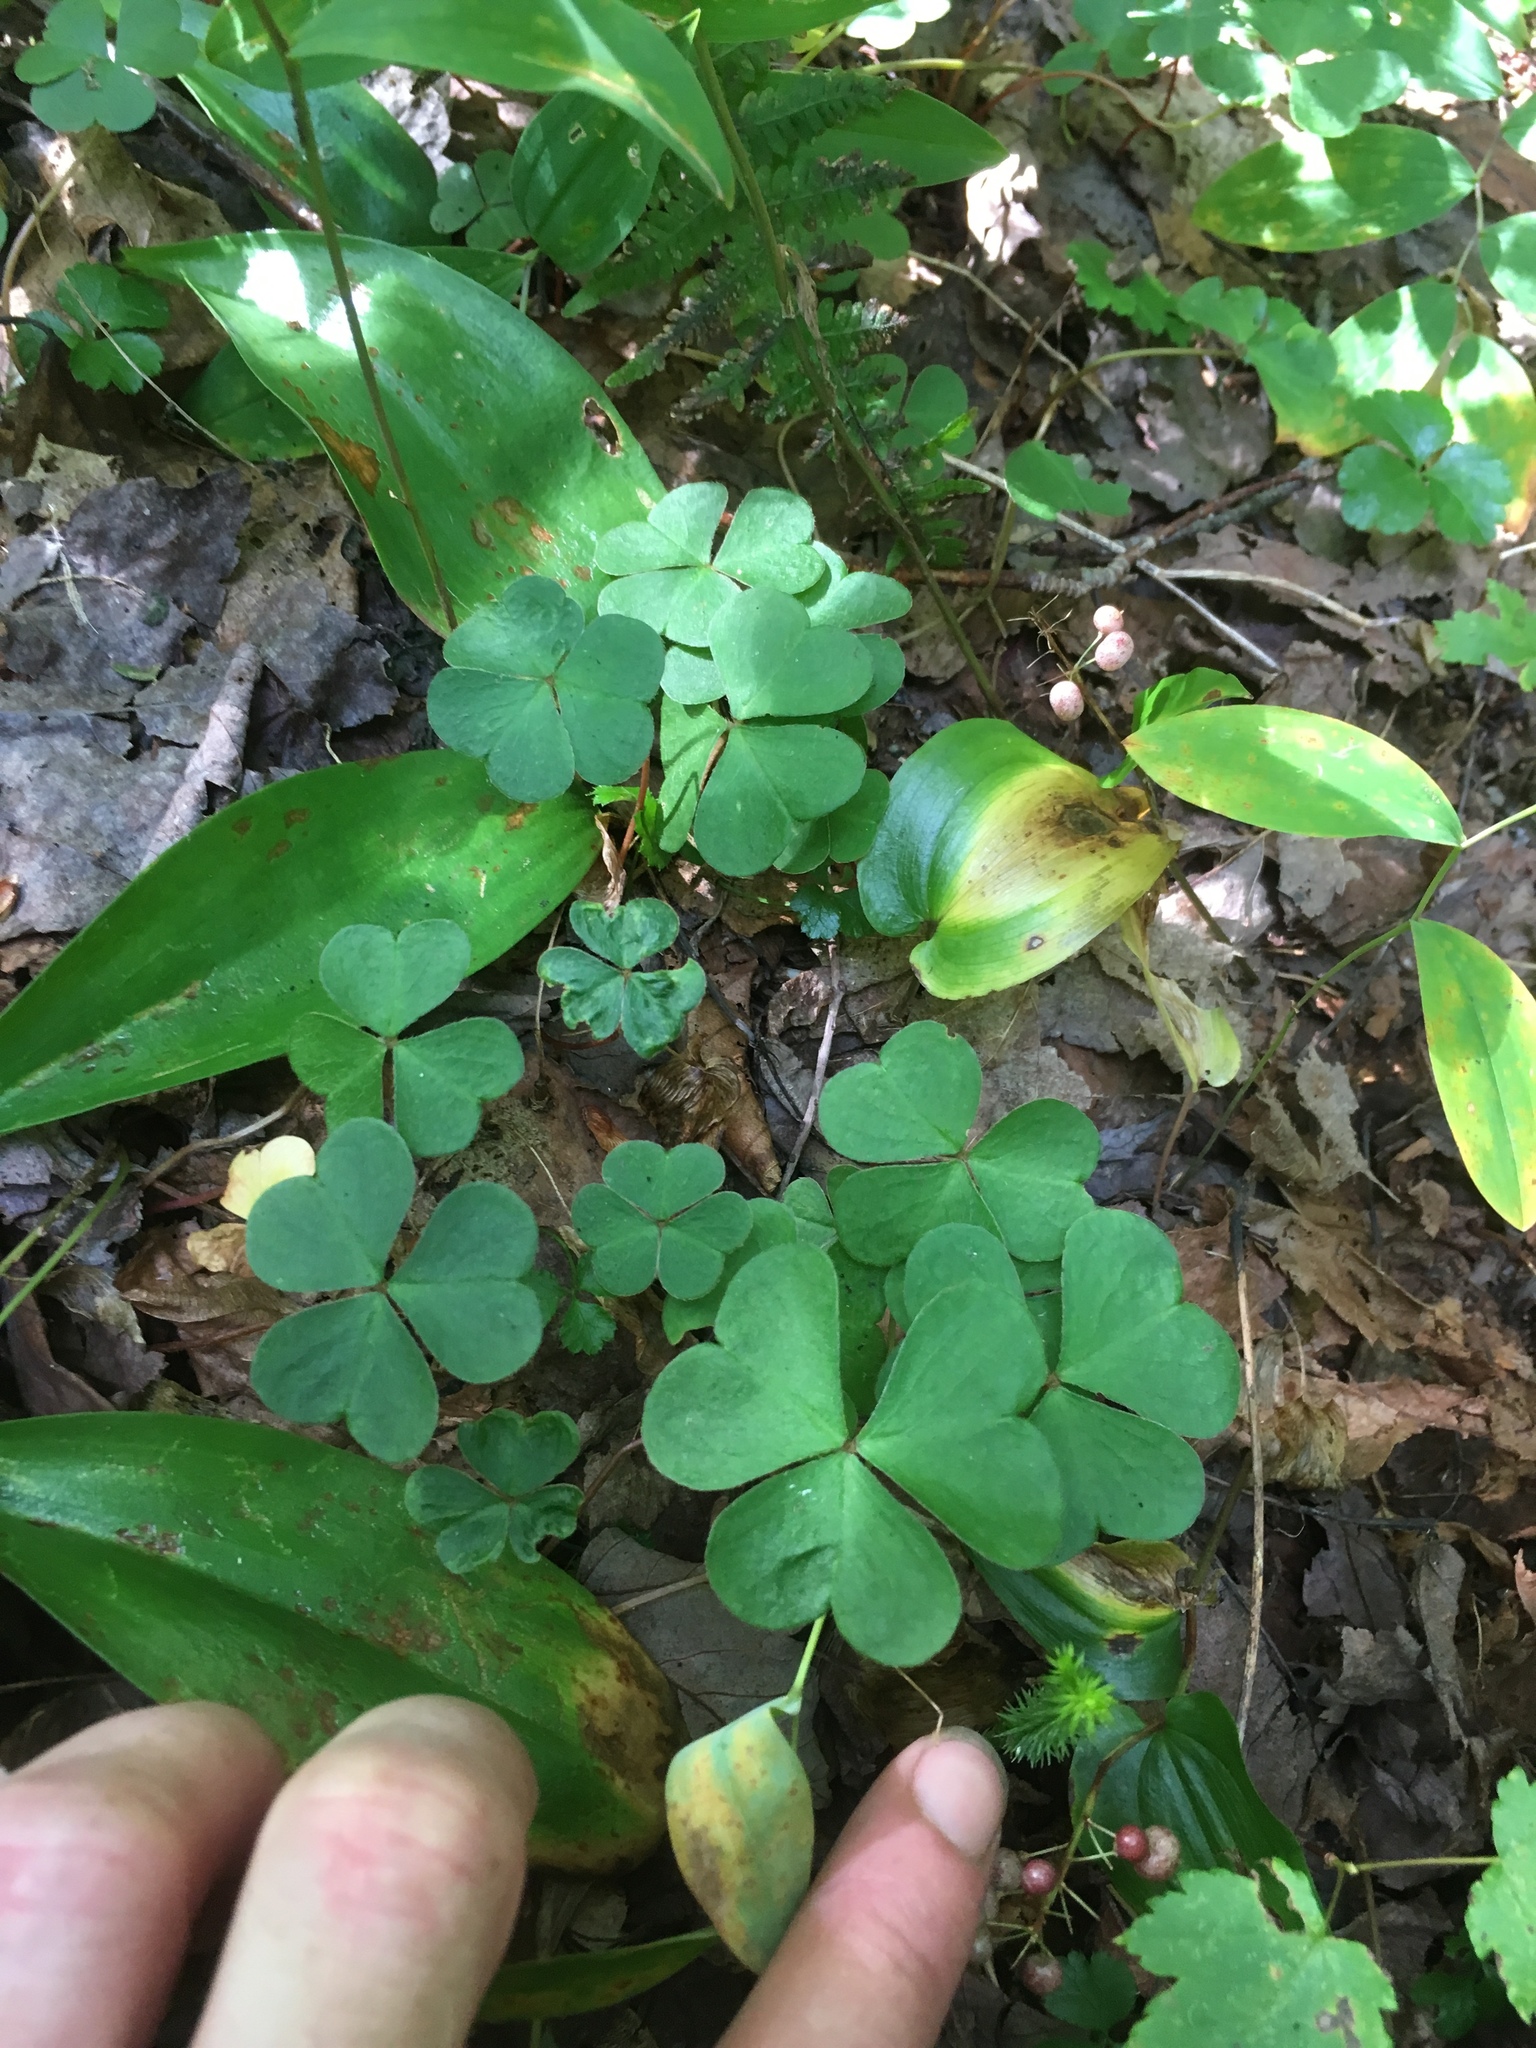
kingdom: Plantae
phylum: Tracheophyta
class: Magnoliopsida
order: Oxalidales
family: Oxalidaceae
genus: Oxalis
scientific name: Oxalis montana
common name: American wood-sorrel
